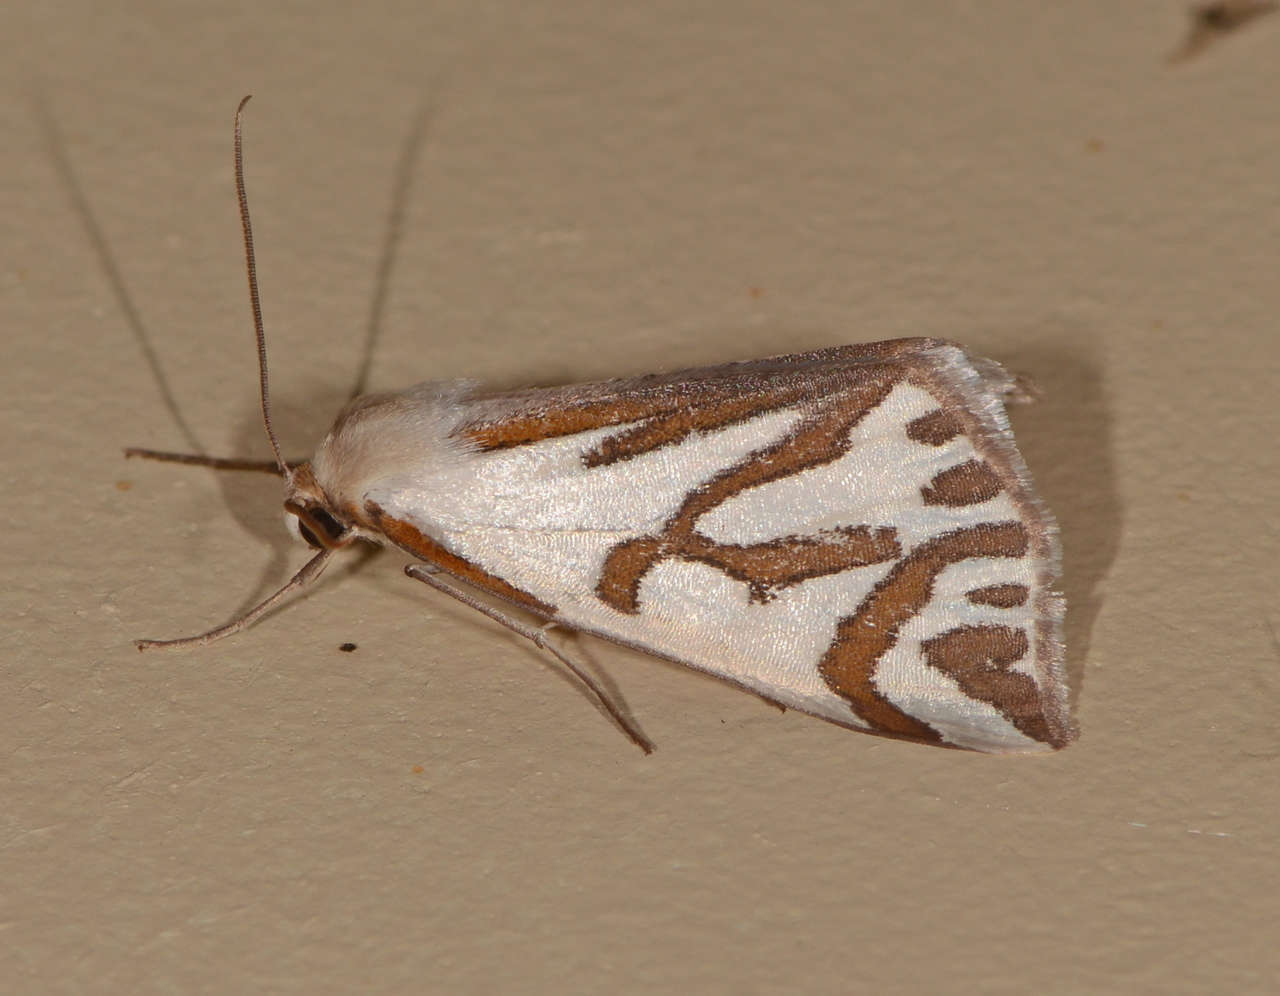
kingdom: Animalia
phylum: Arthropoda
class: Insecta
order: Lepidoptera
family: Geometridae
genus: Thalaina
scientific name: Thalaina inscripta
